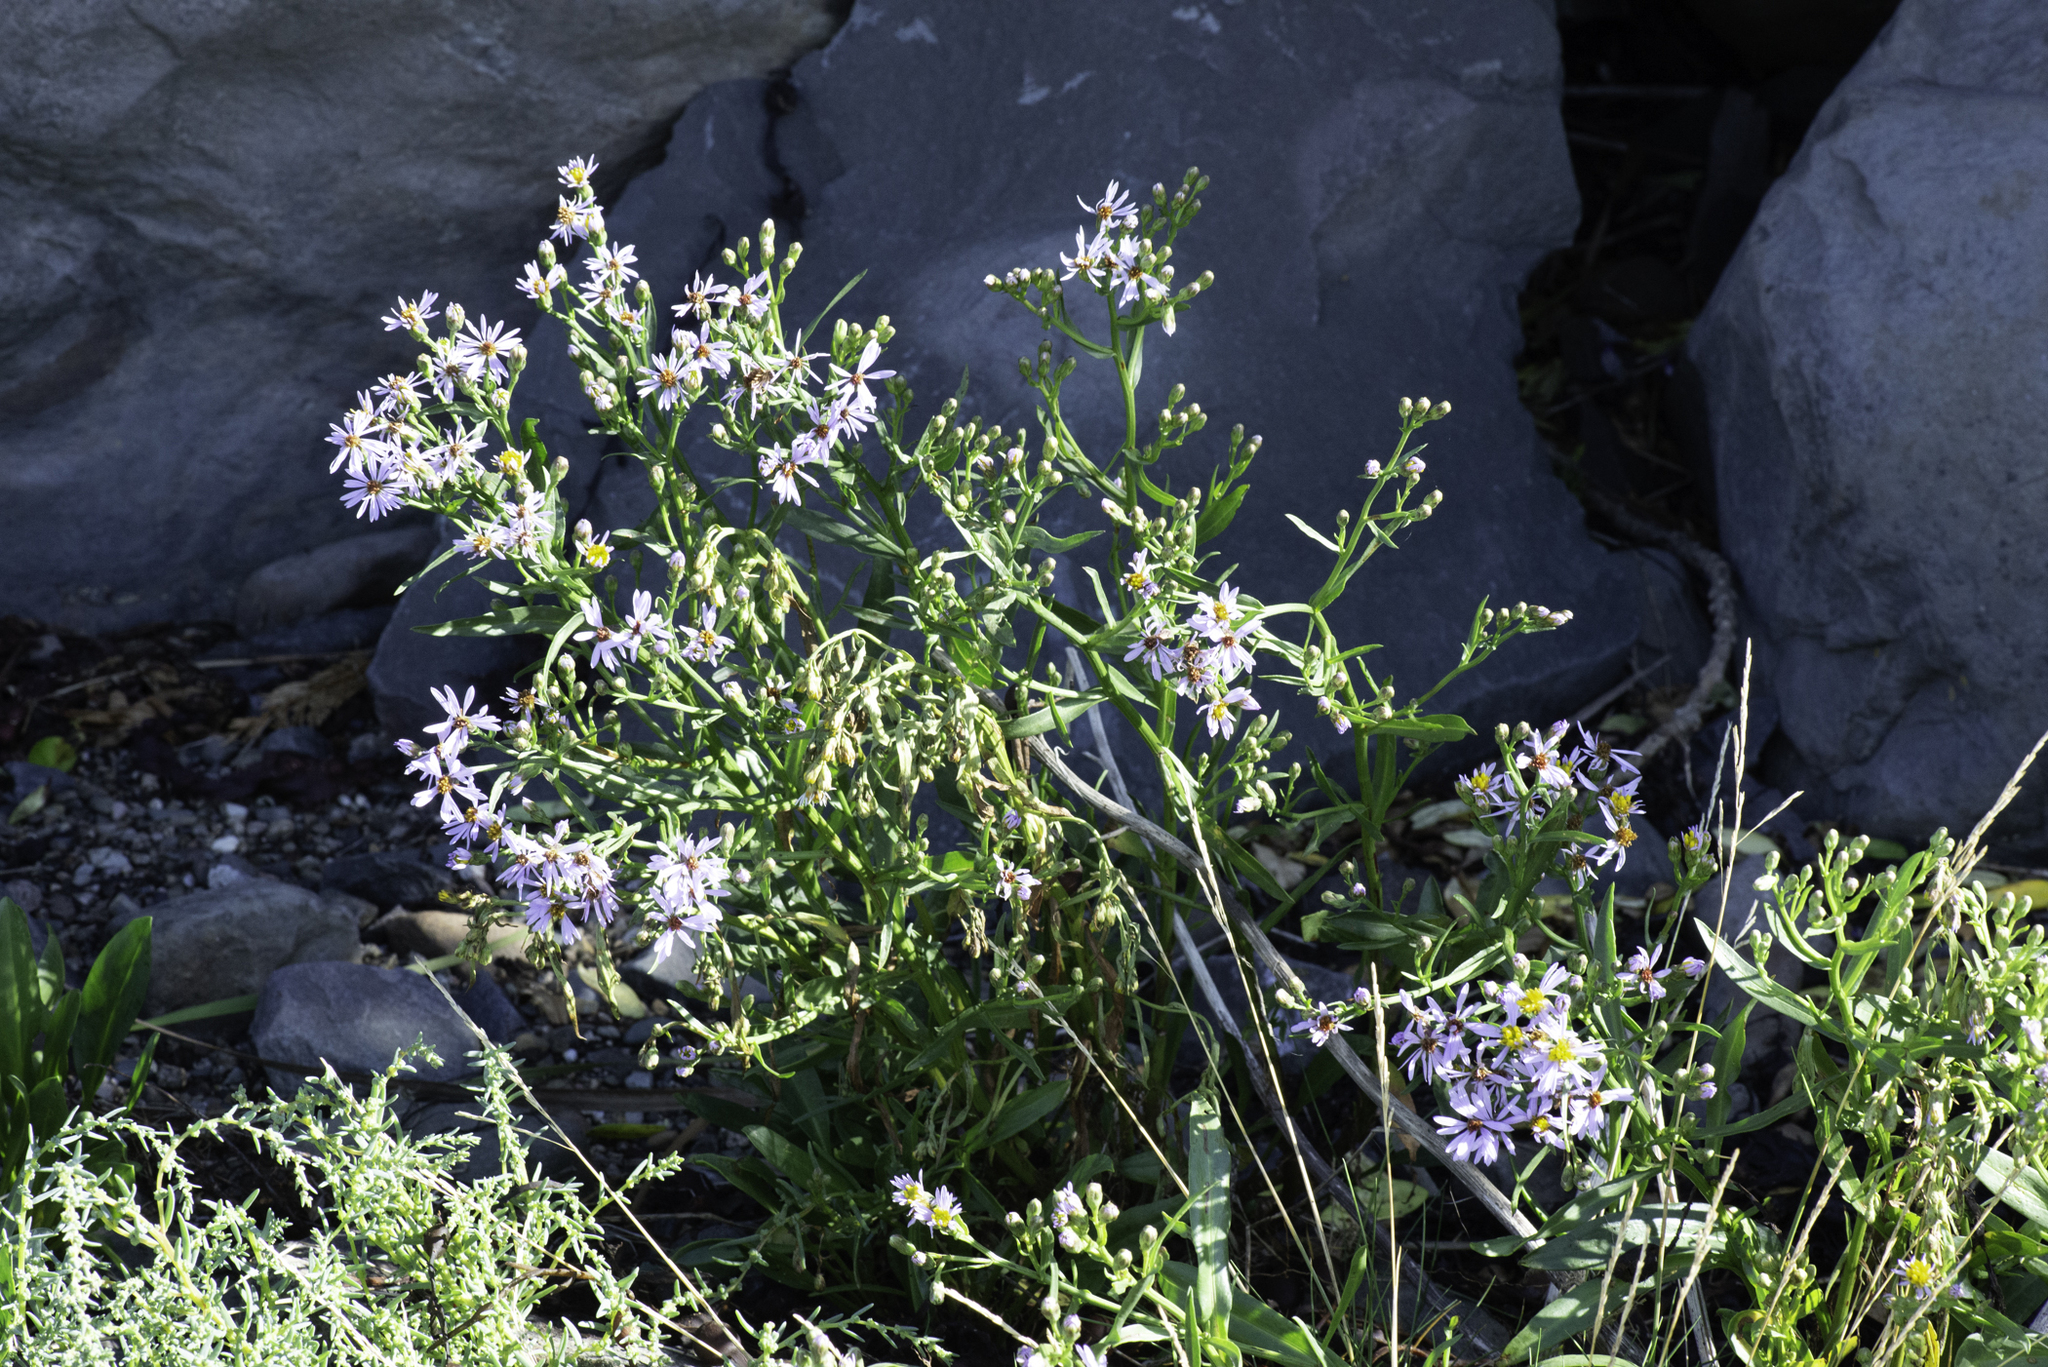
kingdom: Plantae
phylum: Tracheophyta
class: Magnoliopsida
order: Asterales
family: Asteraceae
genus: Tripolium
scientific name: Tripolium pannonicum
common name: Sea aster
